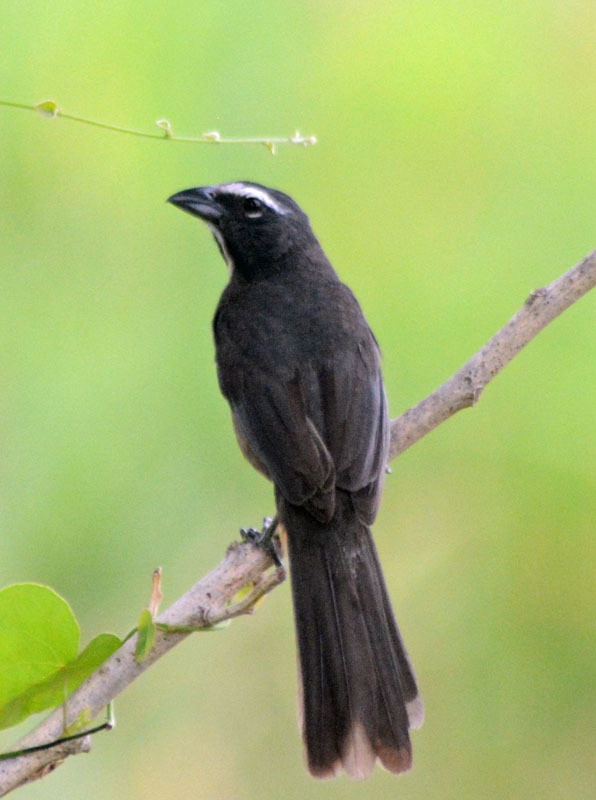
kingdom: Animalia
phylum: Chordata
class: Aves
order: Passeriformes
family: Thraupidae
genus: Saltator
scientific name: Saltator grandis
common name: Cinnamon-bellied saltator
